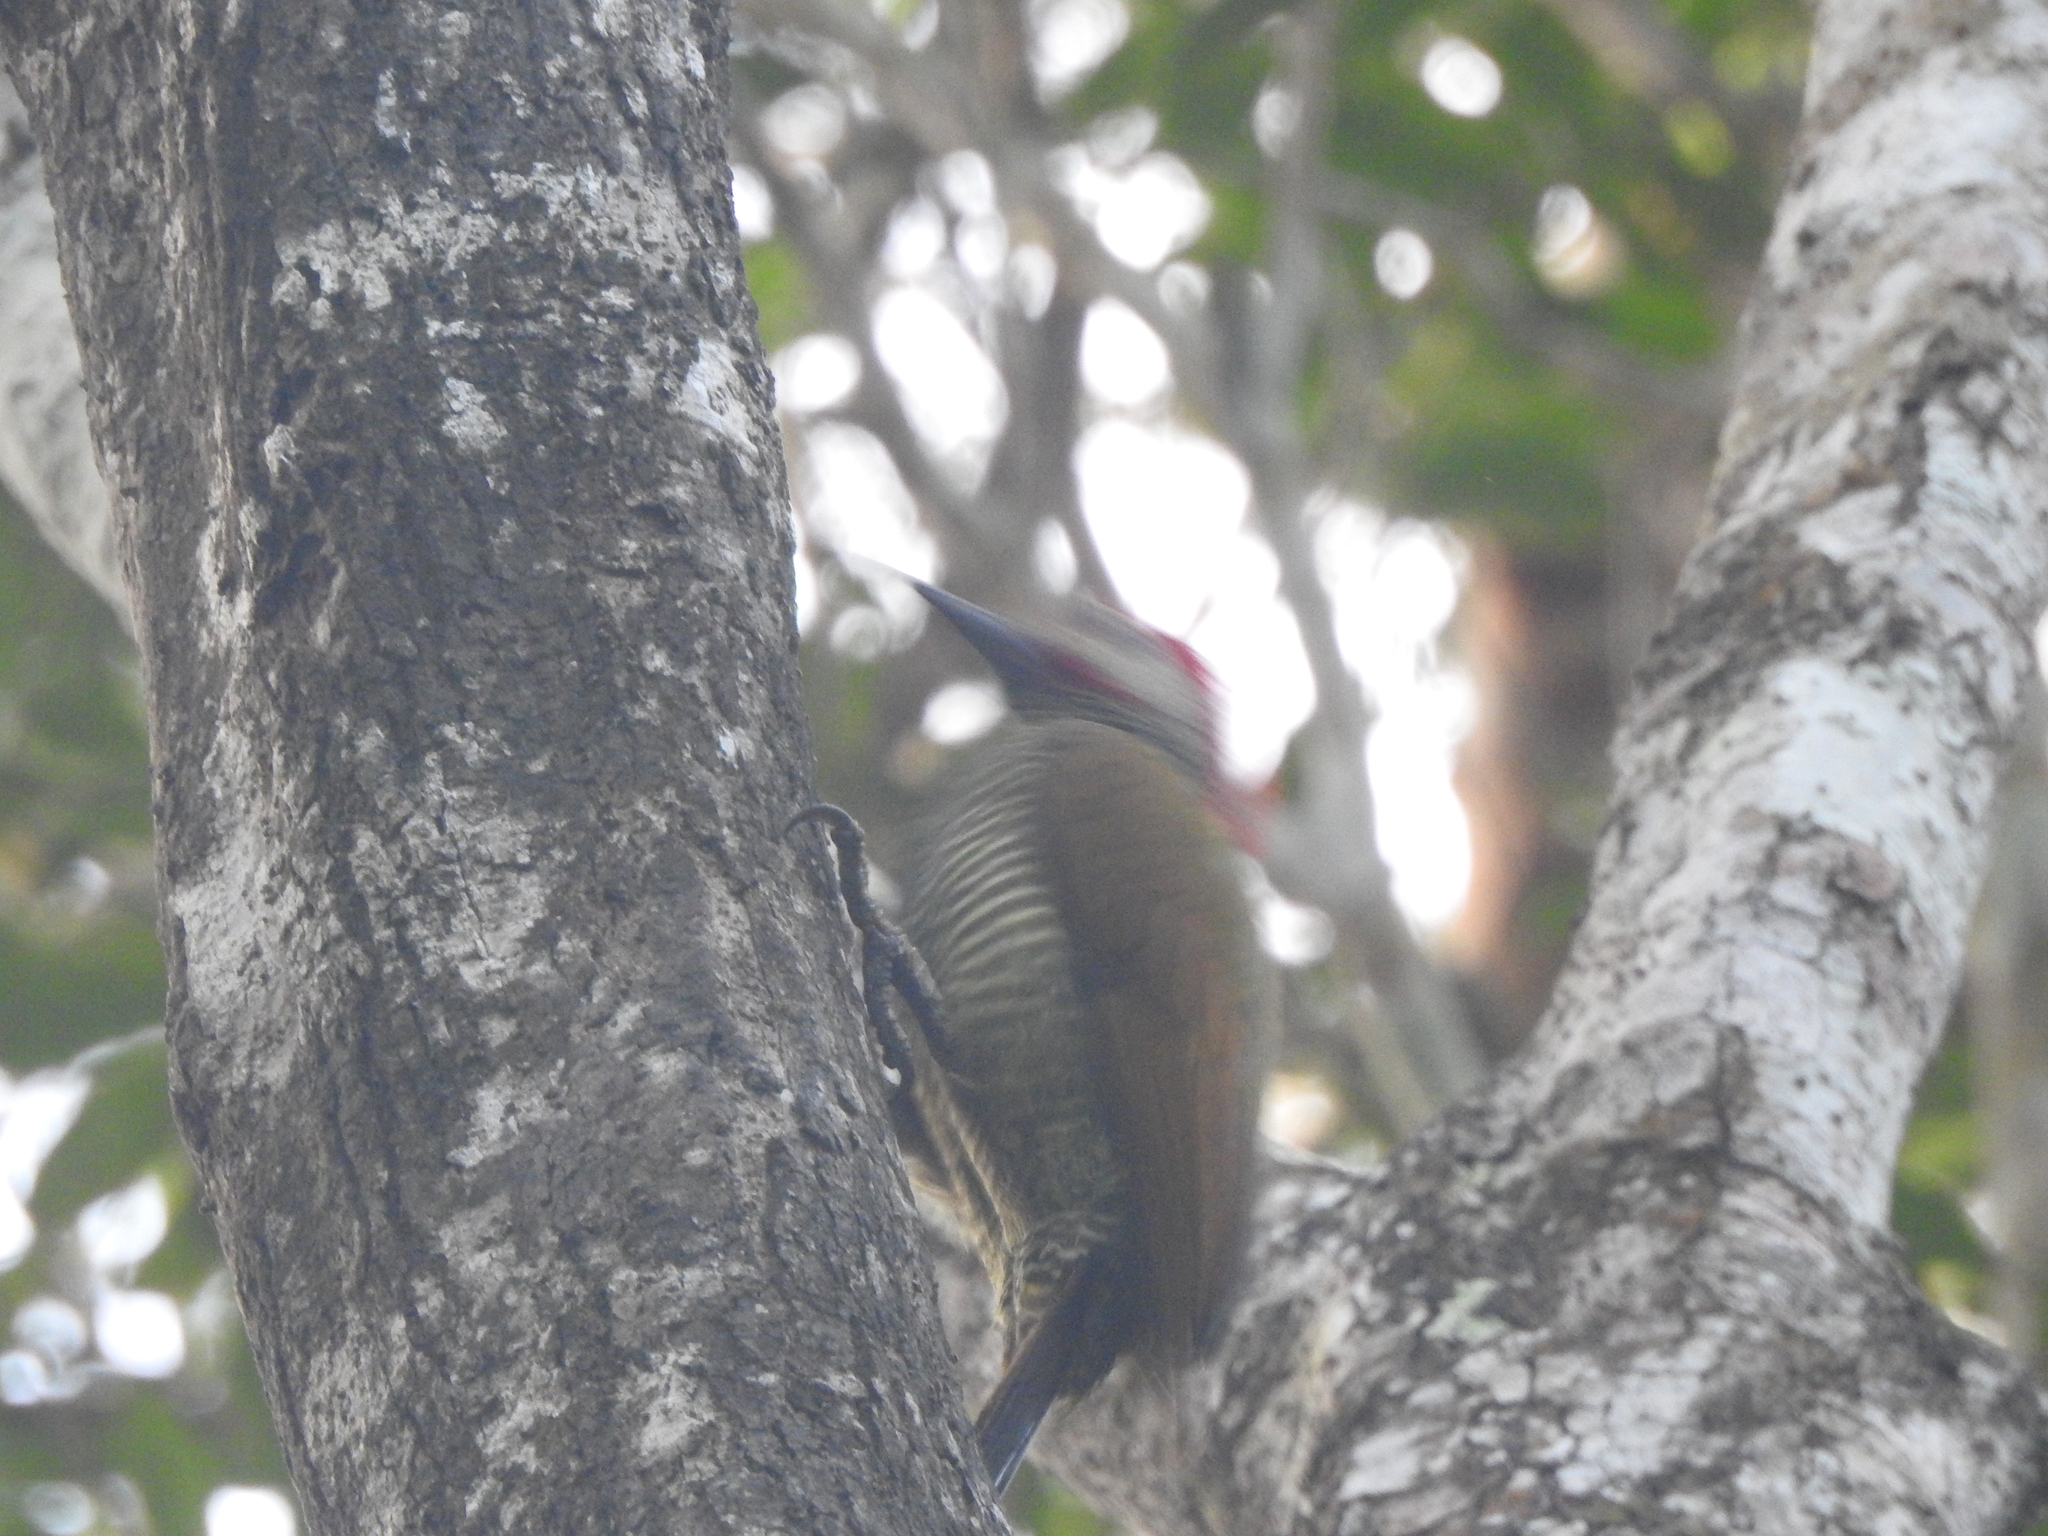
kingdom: Animalia
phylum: Chordata
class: Aves
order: Piciformes
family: Picidae
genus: Colaptes
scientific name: Colaptes rubiginosus
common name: Golden-olive woodpecker
